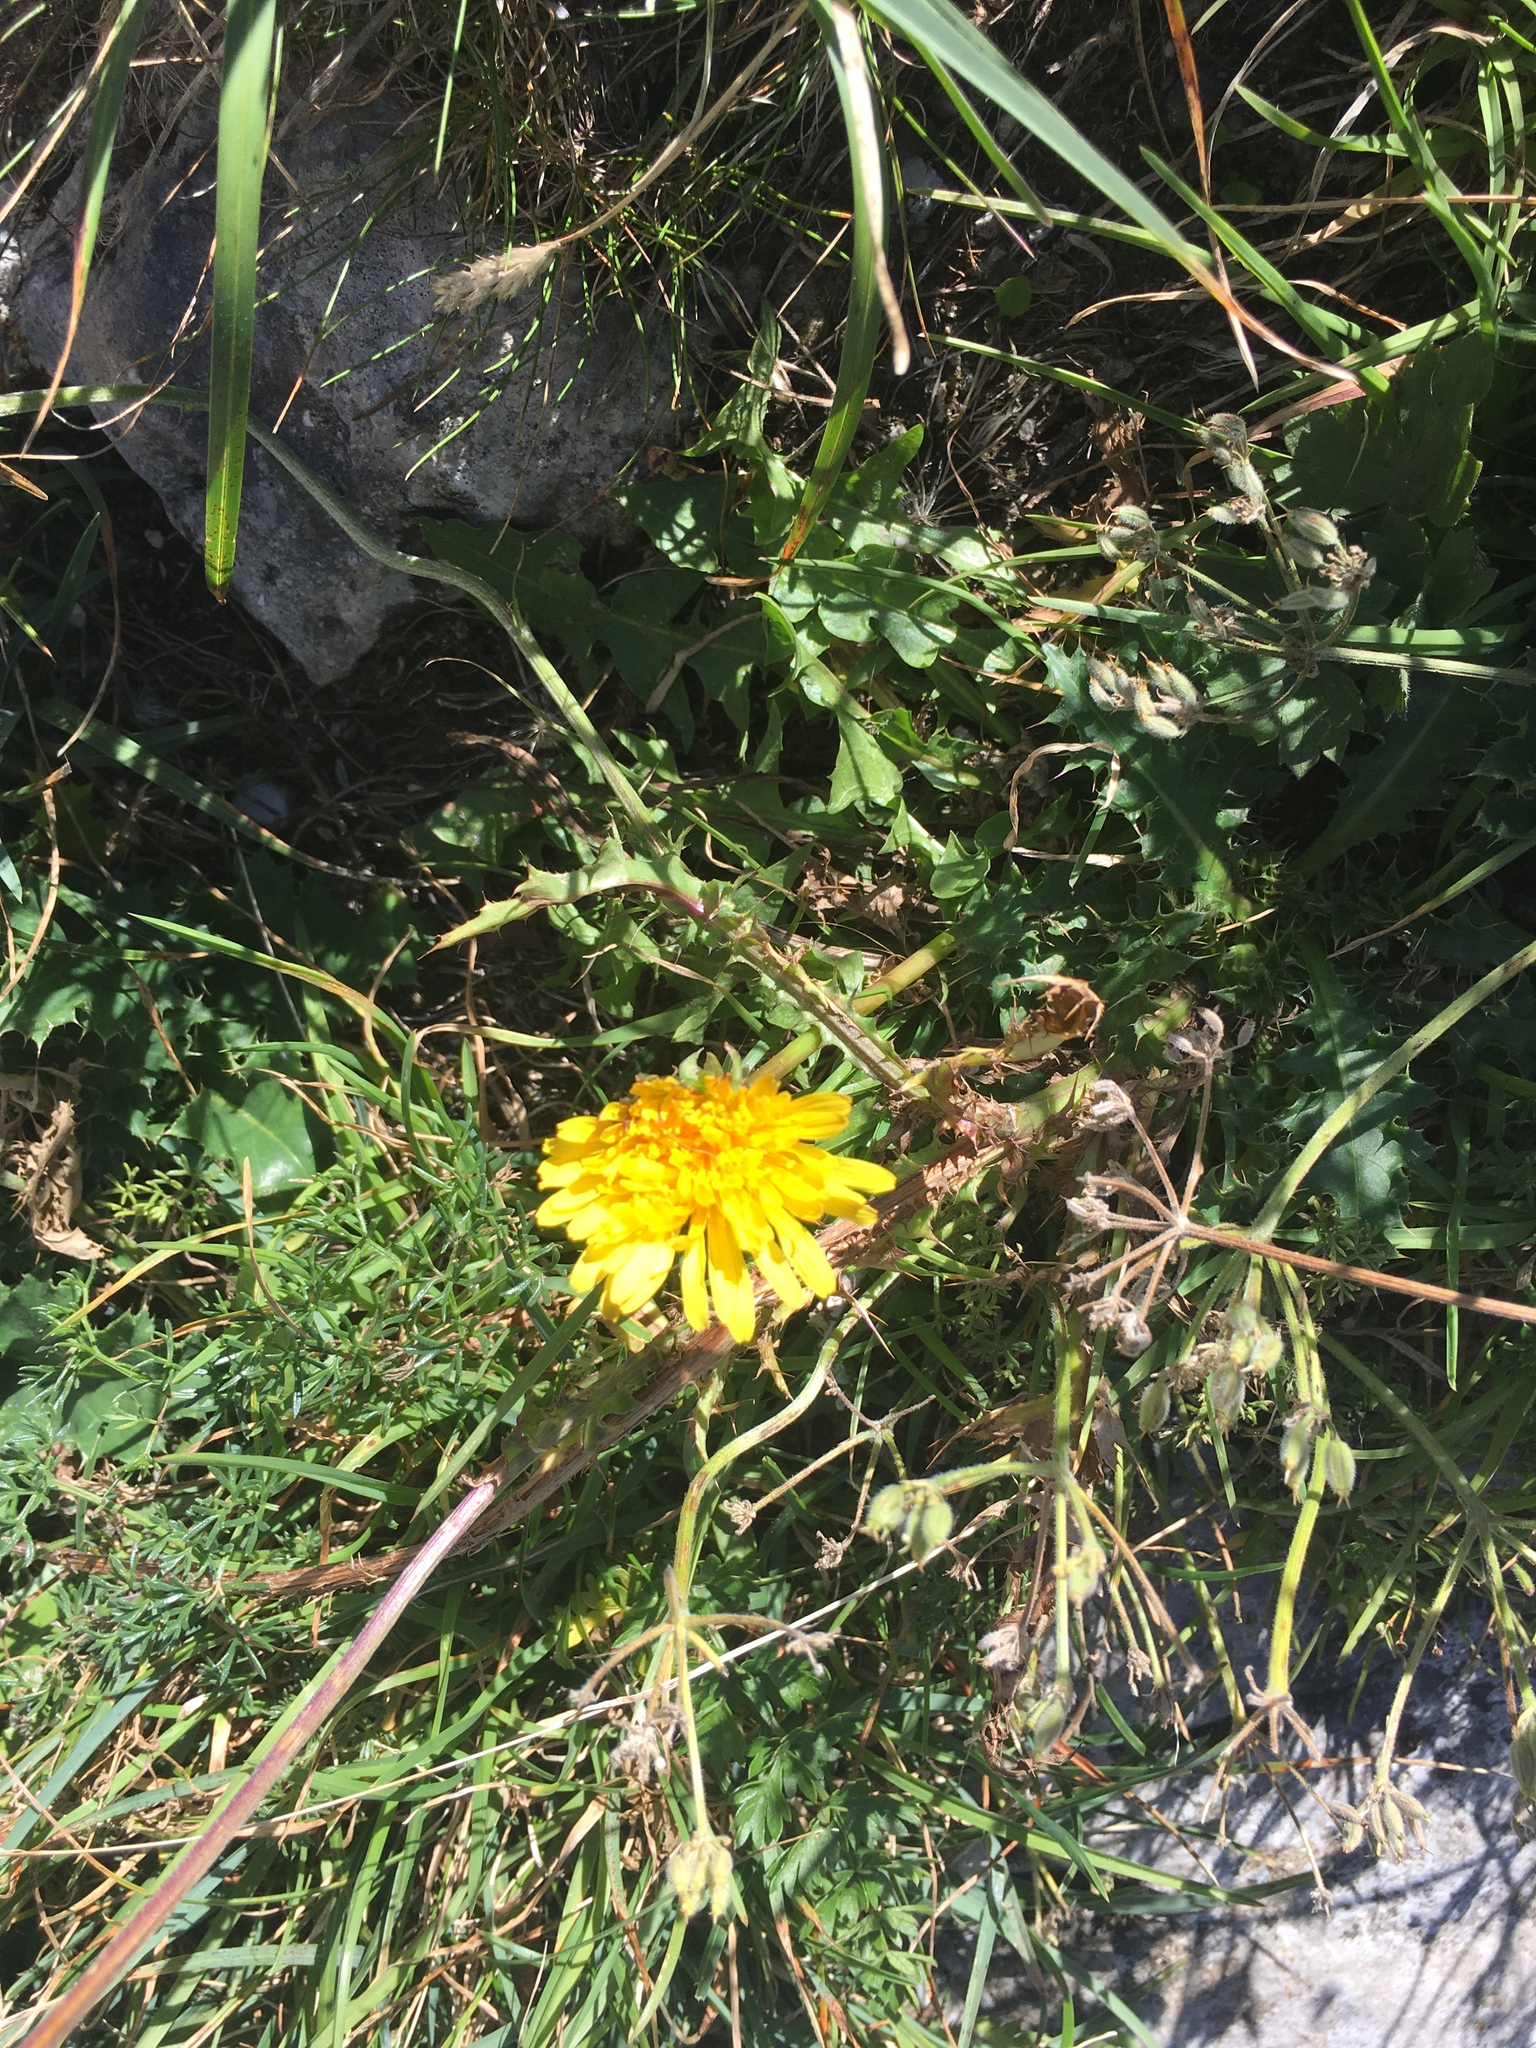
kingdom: Plantae
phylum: Tracheophyta
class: Magnoliopsida
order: Asterales
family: Asteraceae
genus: Taraxacum
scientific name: Taraxacum officinale
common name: Common dandelion
